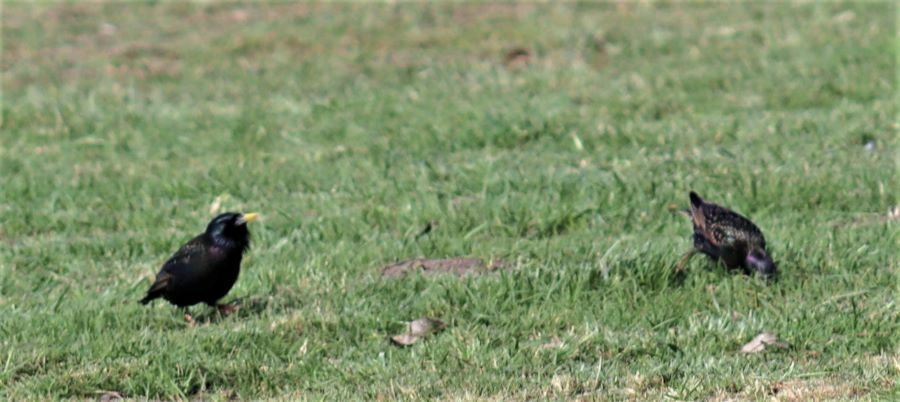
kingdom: Animalia
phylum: Chordata
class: Aves
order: Passeriformes
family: Sturnidae
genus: Sturnus
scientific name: Sturnus vulgaris
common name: Common starling
